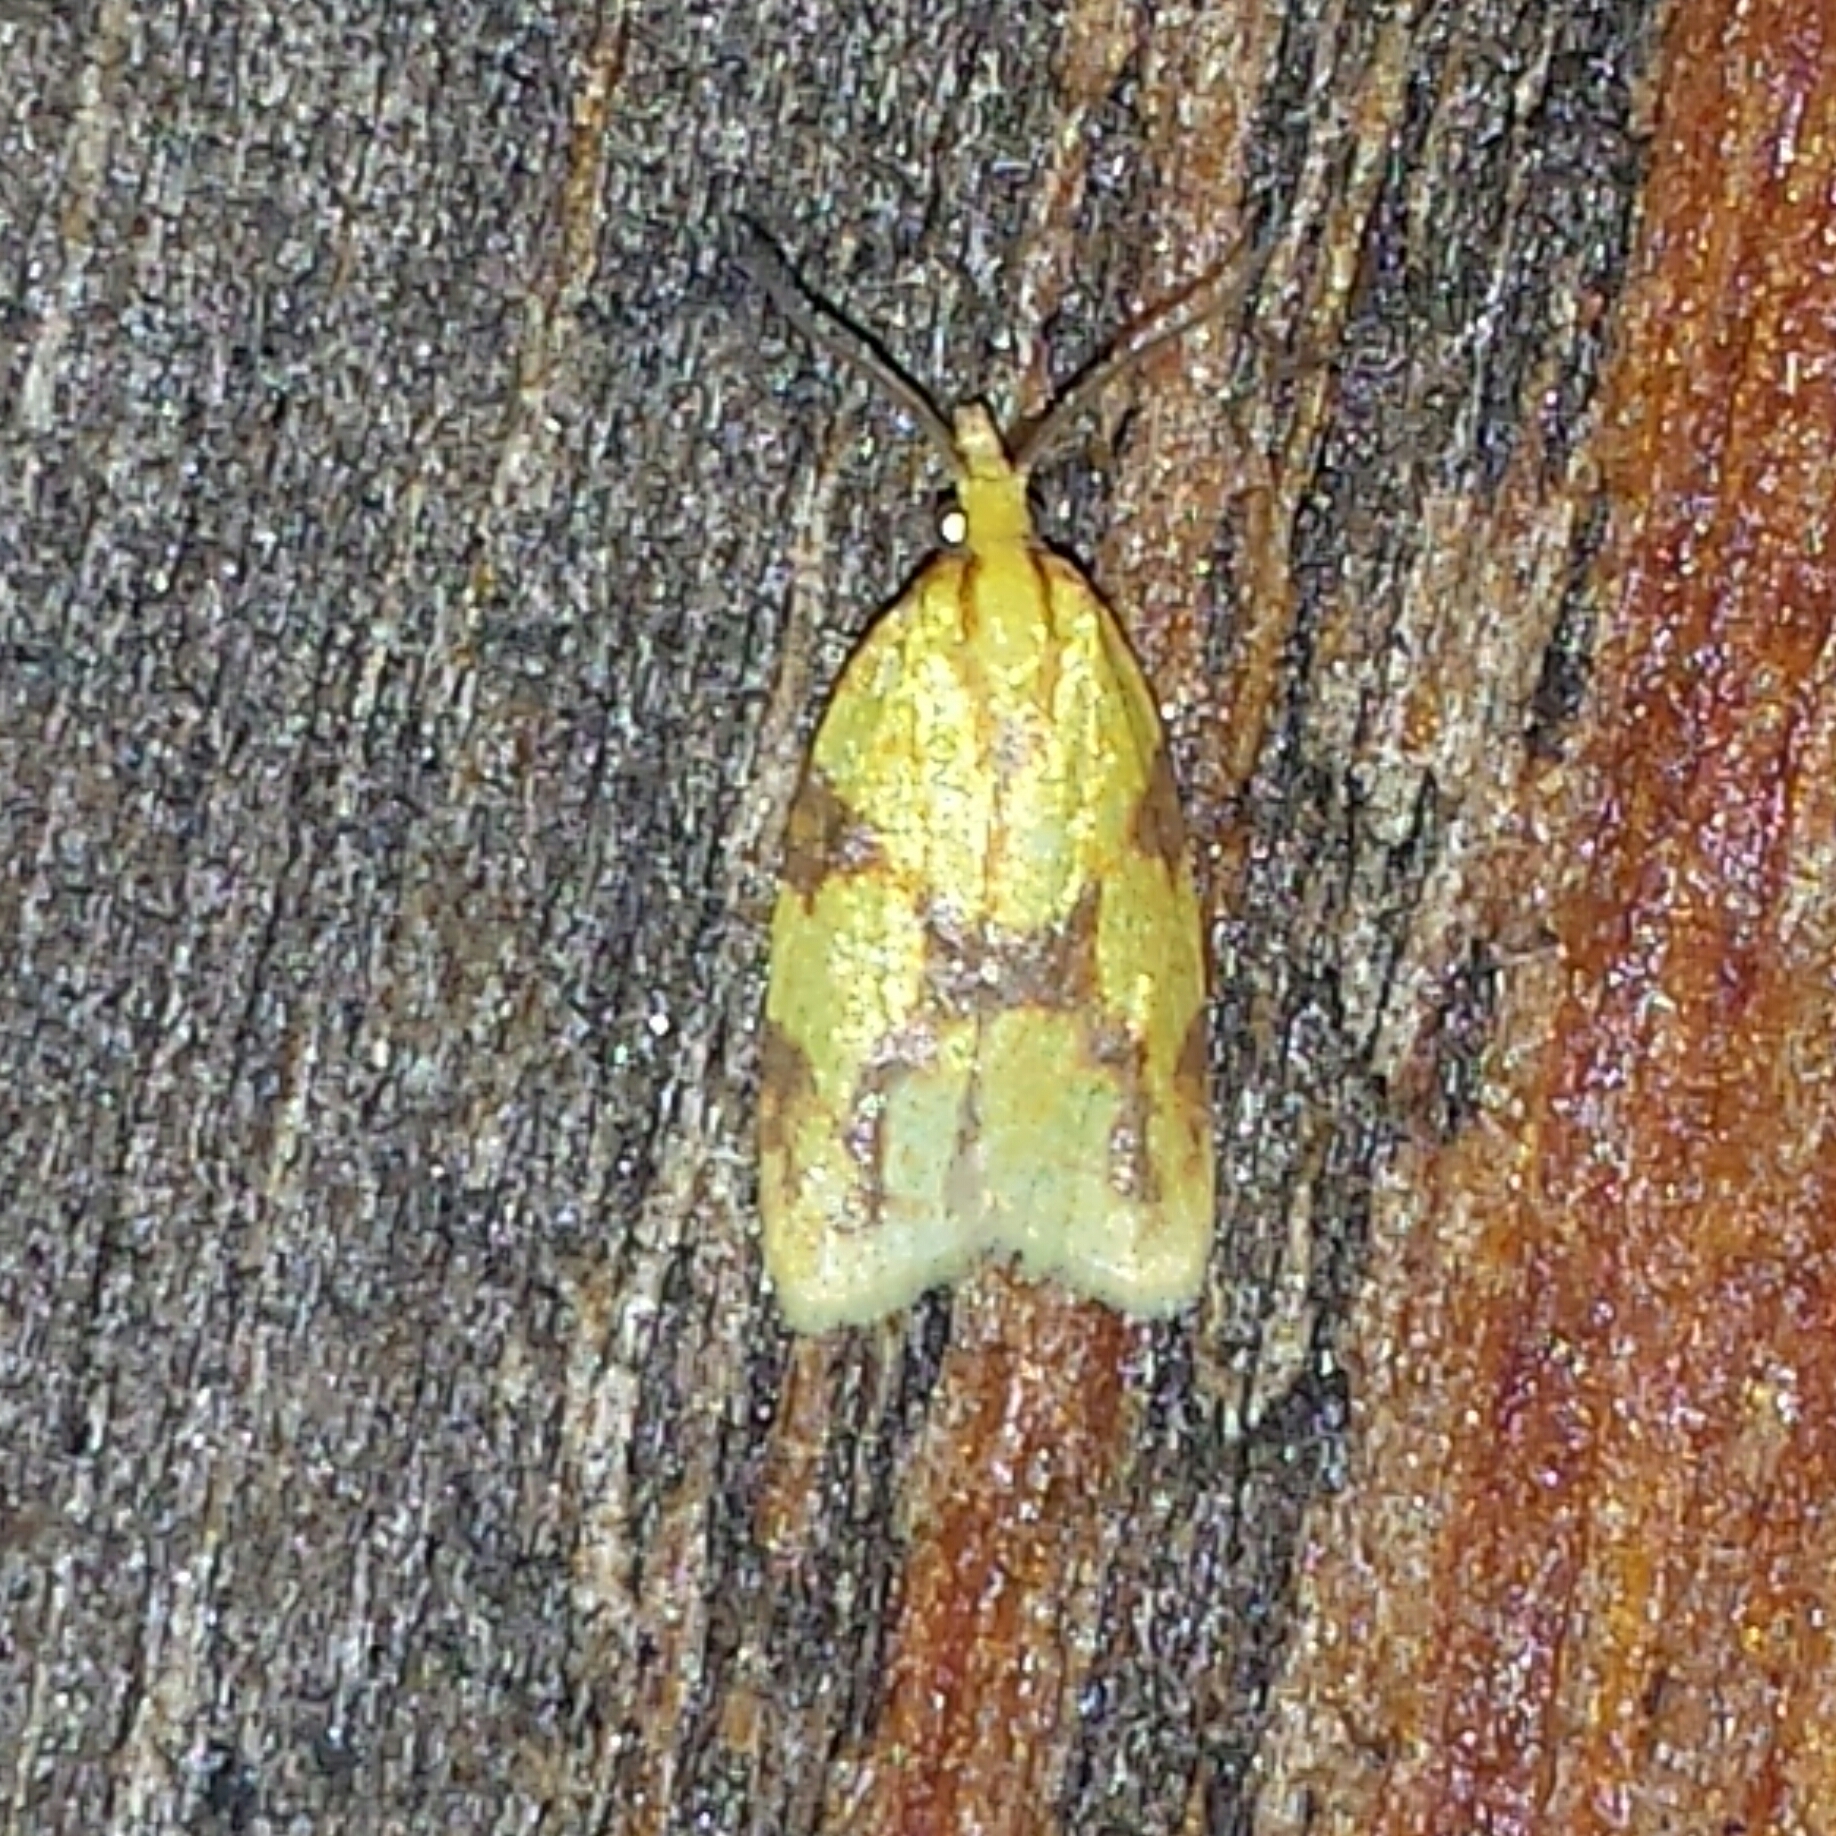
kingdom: Animalia
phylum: Arthropoda
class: Insecta
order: Lepidoptera
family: Tortricidae
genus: Sparganothis
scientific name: Sparganothis sulfureana
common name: Sparganothis fruitworm moth
